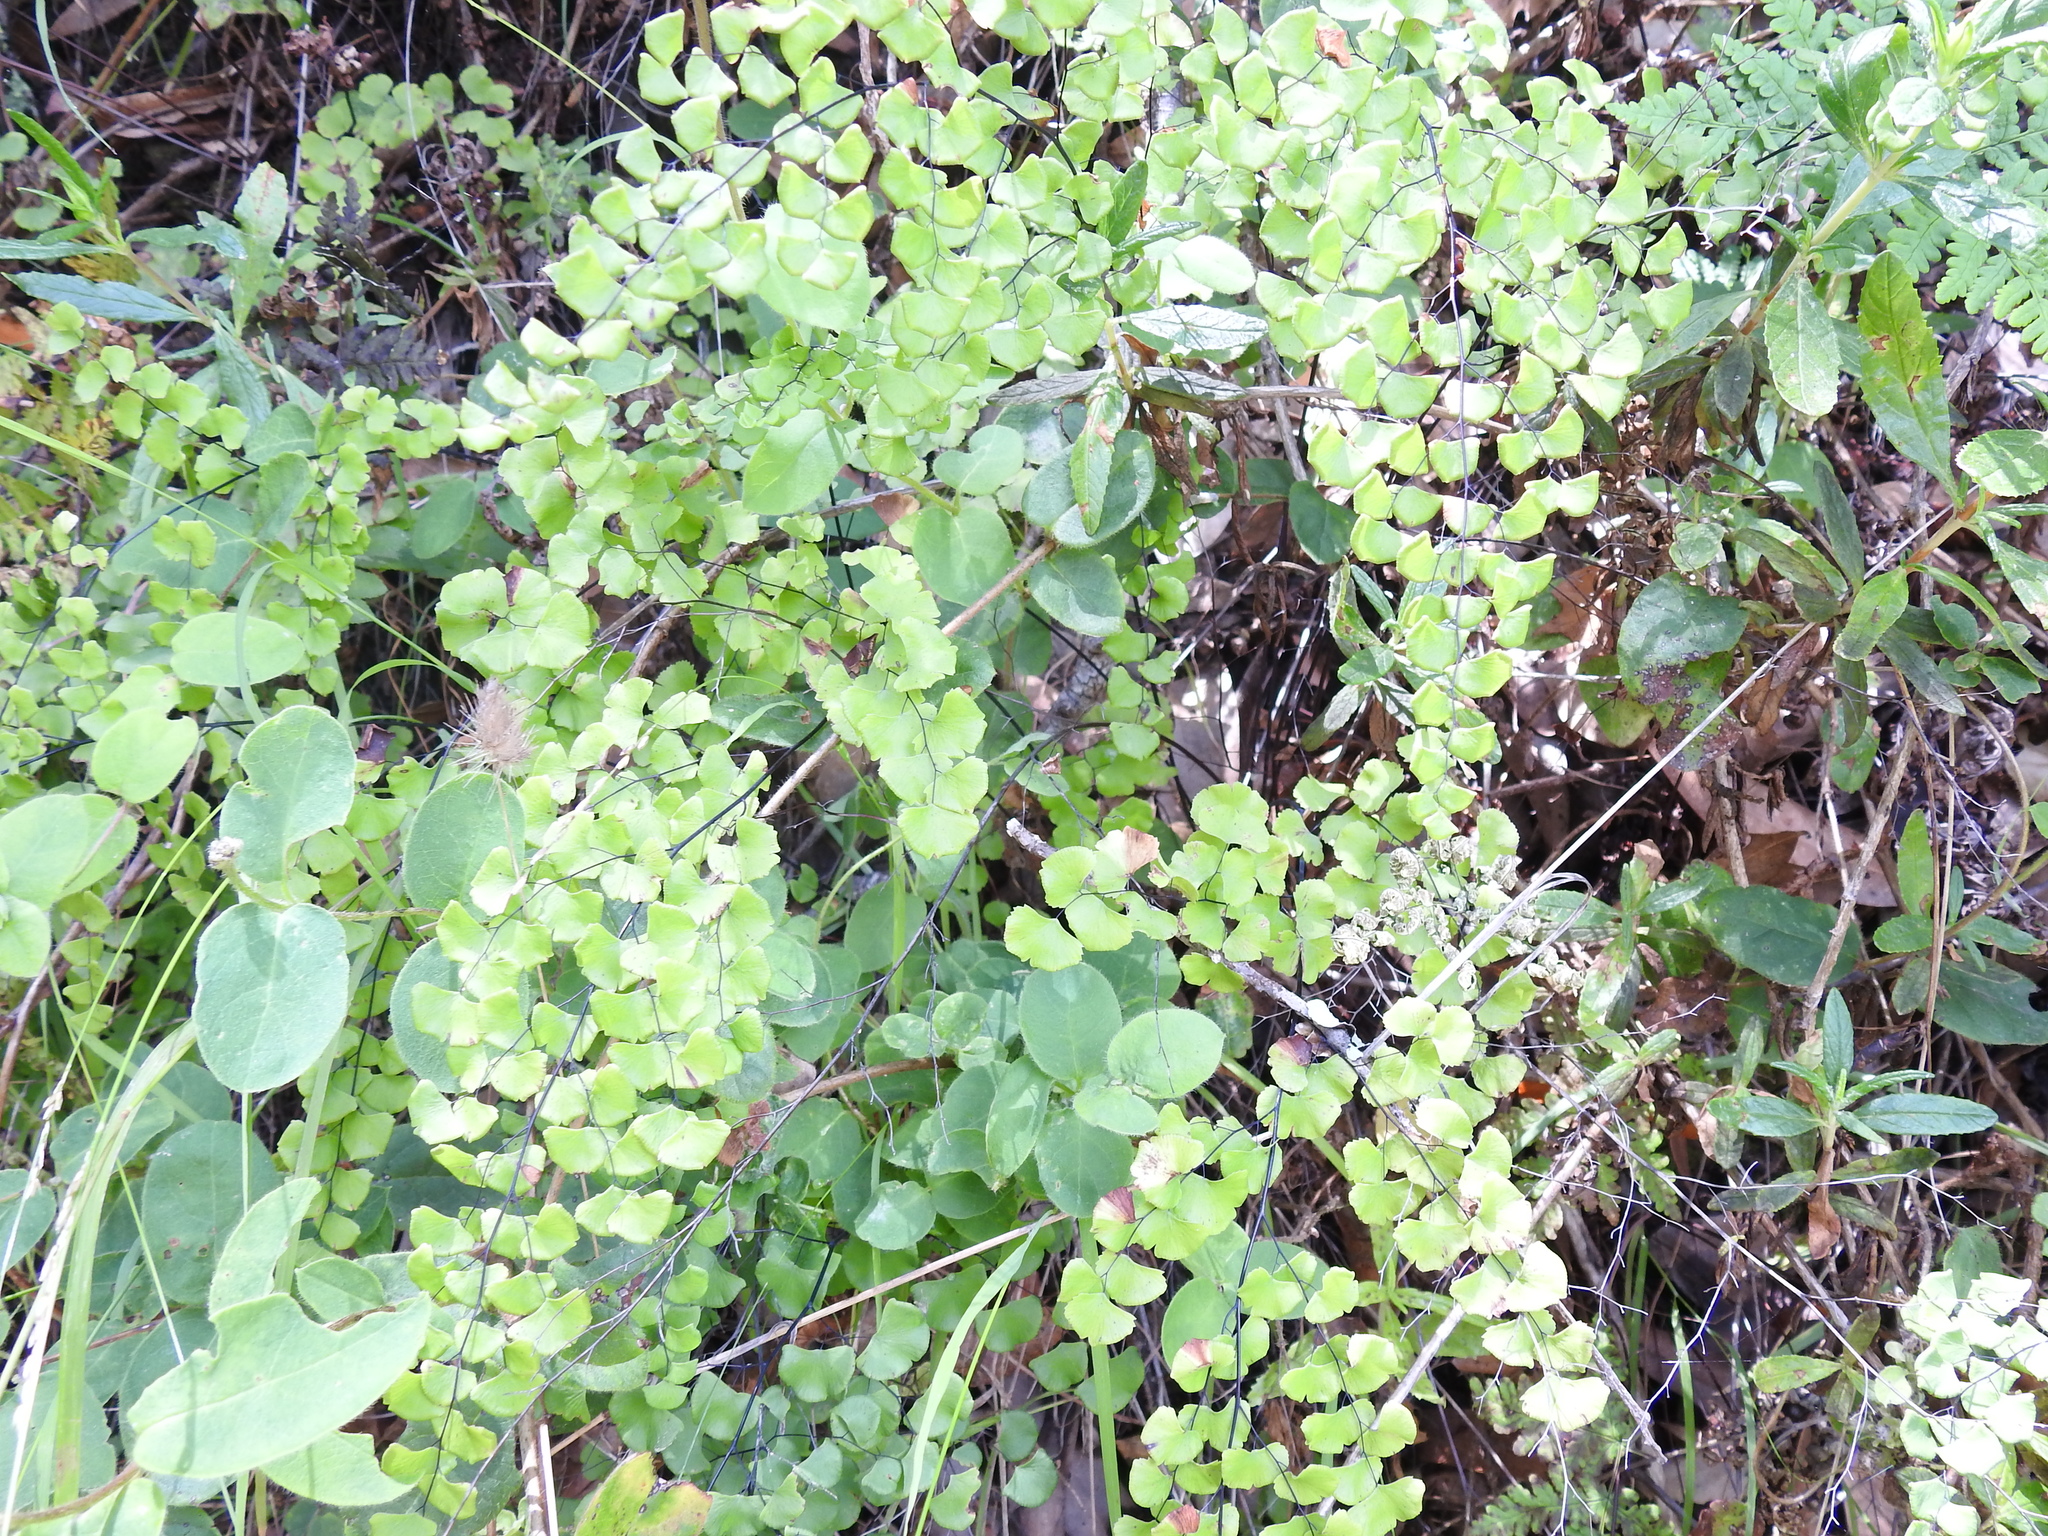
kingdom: Plantae
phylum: Tracheophyta
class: Polypodiopsida
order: Polypodiales
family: Pteridaceae
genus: Adiantum
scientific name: Adiantum jordanii
